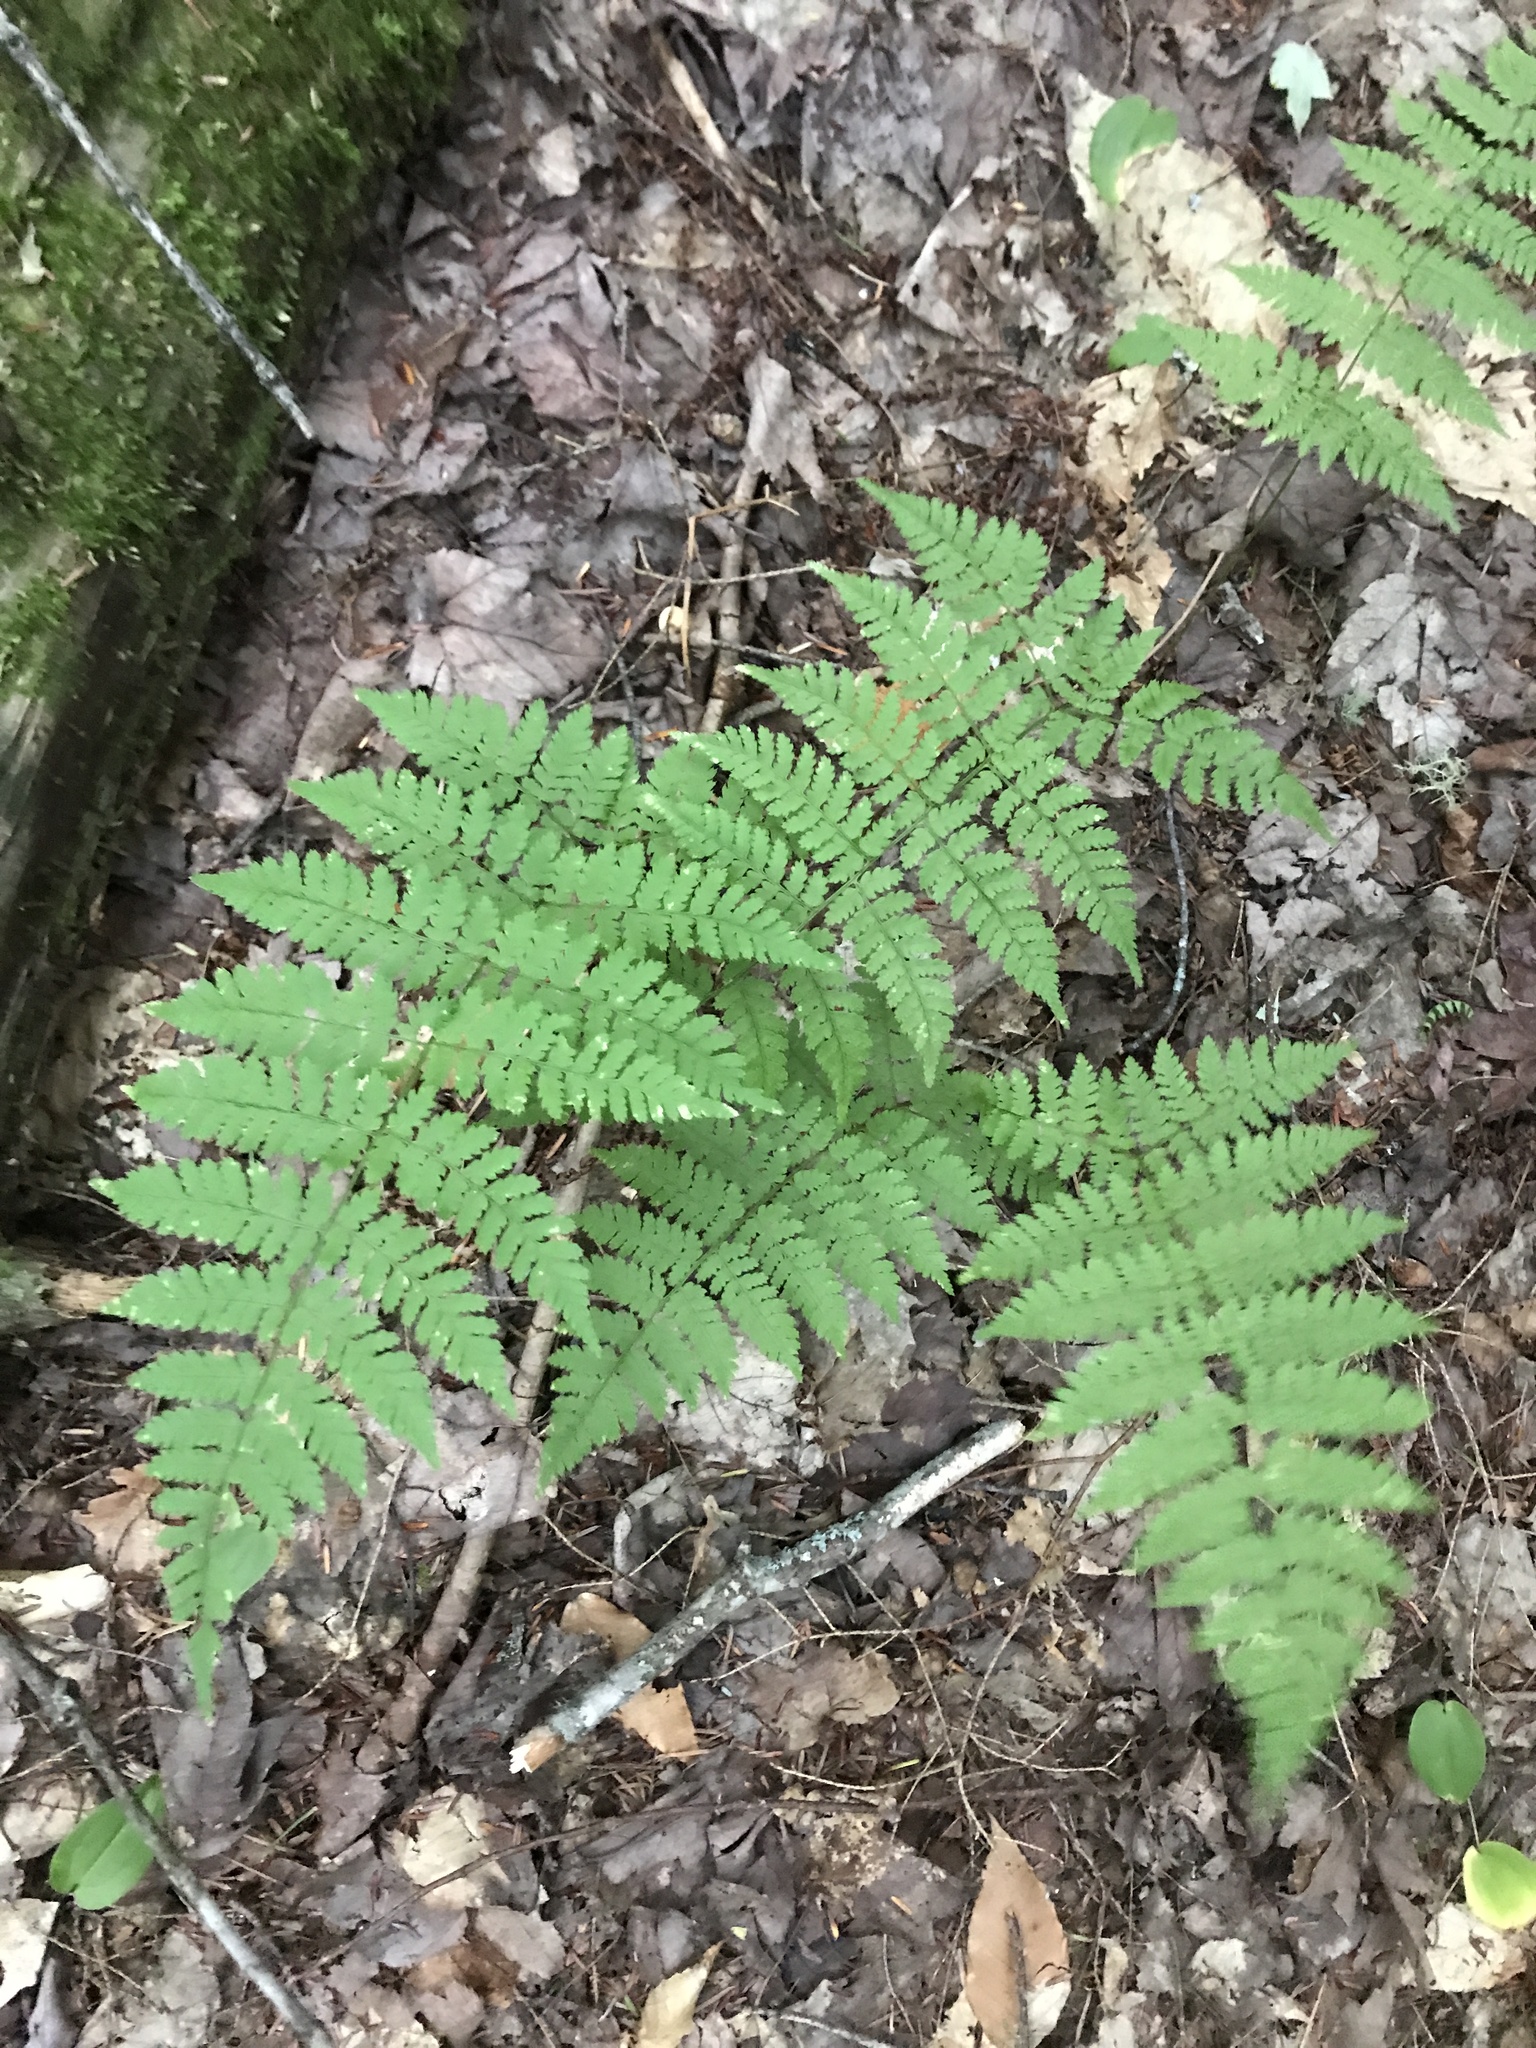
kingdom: Plantae
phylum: Tracheophyta
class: Polypodiopsida
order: Polypodiales
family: Dryopteridaceae
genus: Dryopteris
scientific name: Dryopteris intermedia
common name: Evergreen wood fern
